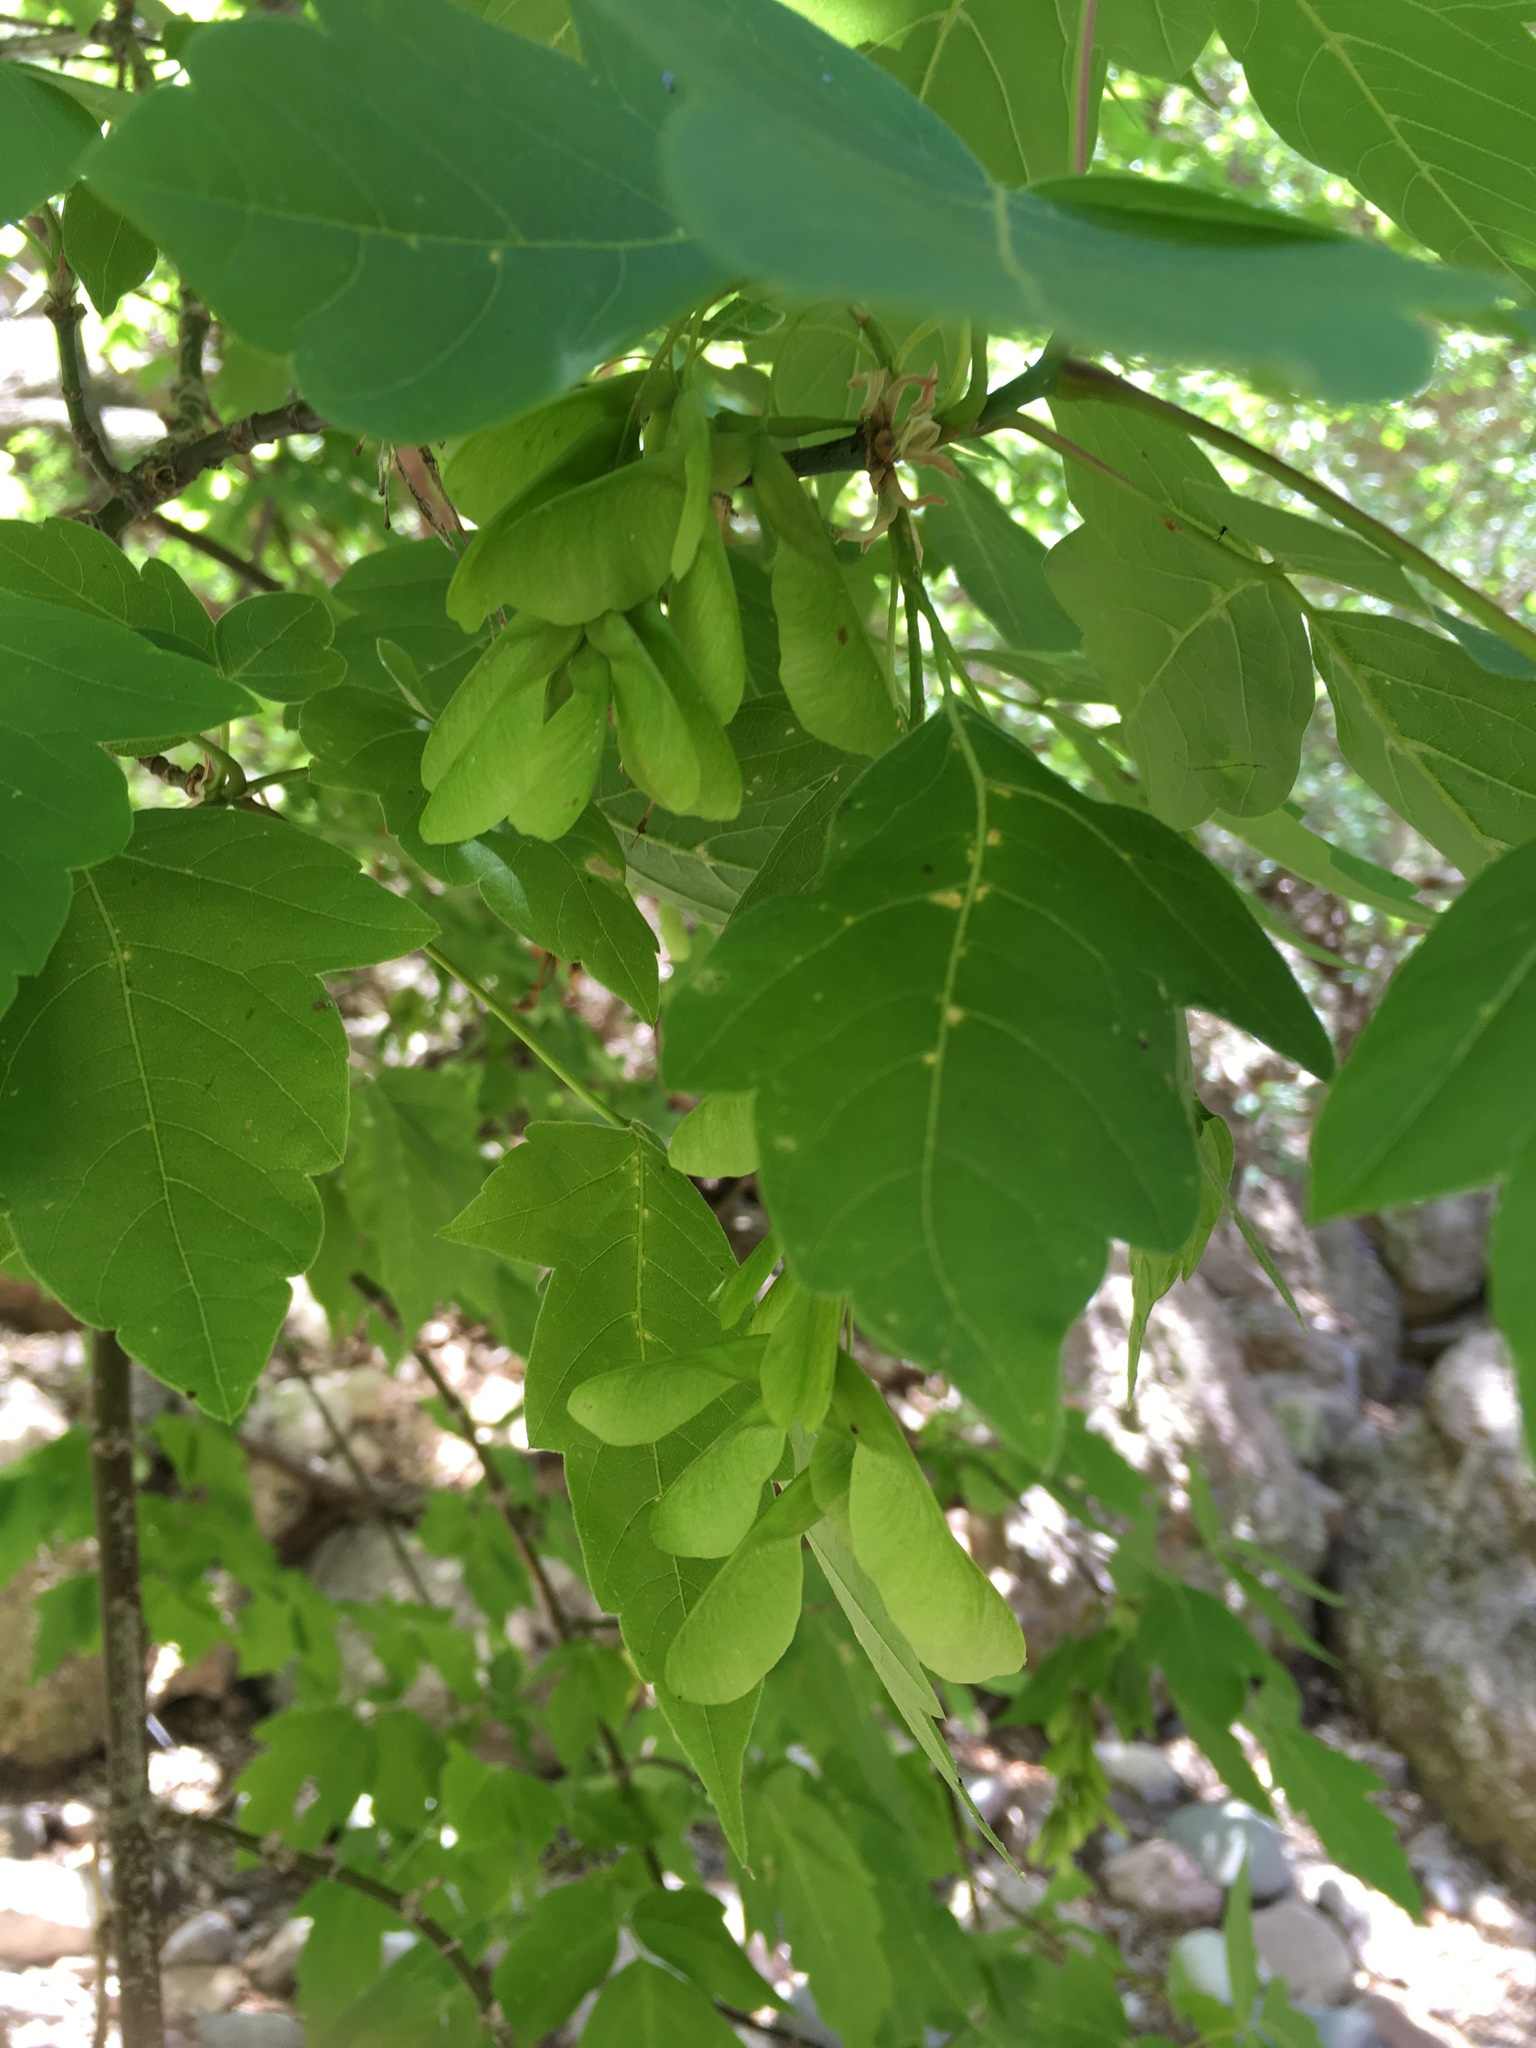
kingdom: Plantae
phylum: Tracheophyta
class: Magnoliopsida
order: Sapindales
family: Sapindaceae
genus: Acer
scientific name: Acer negundo
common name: Ashleaf maple
